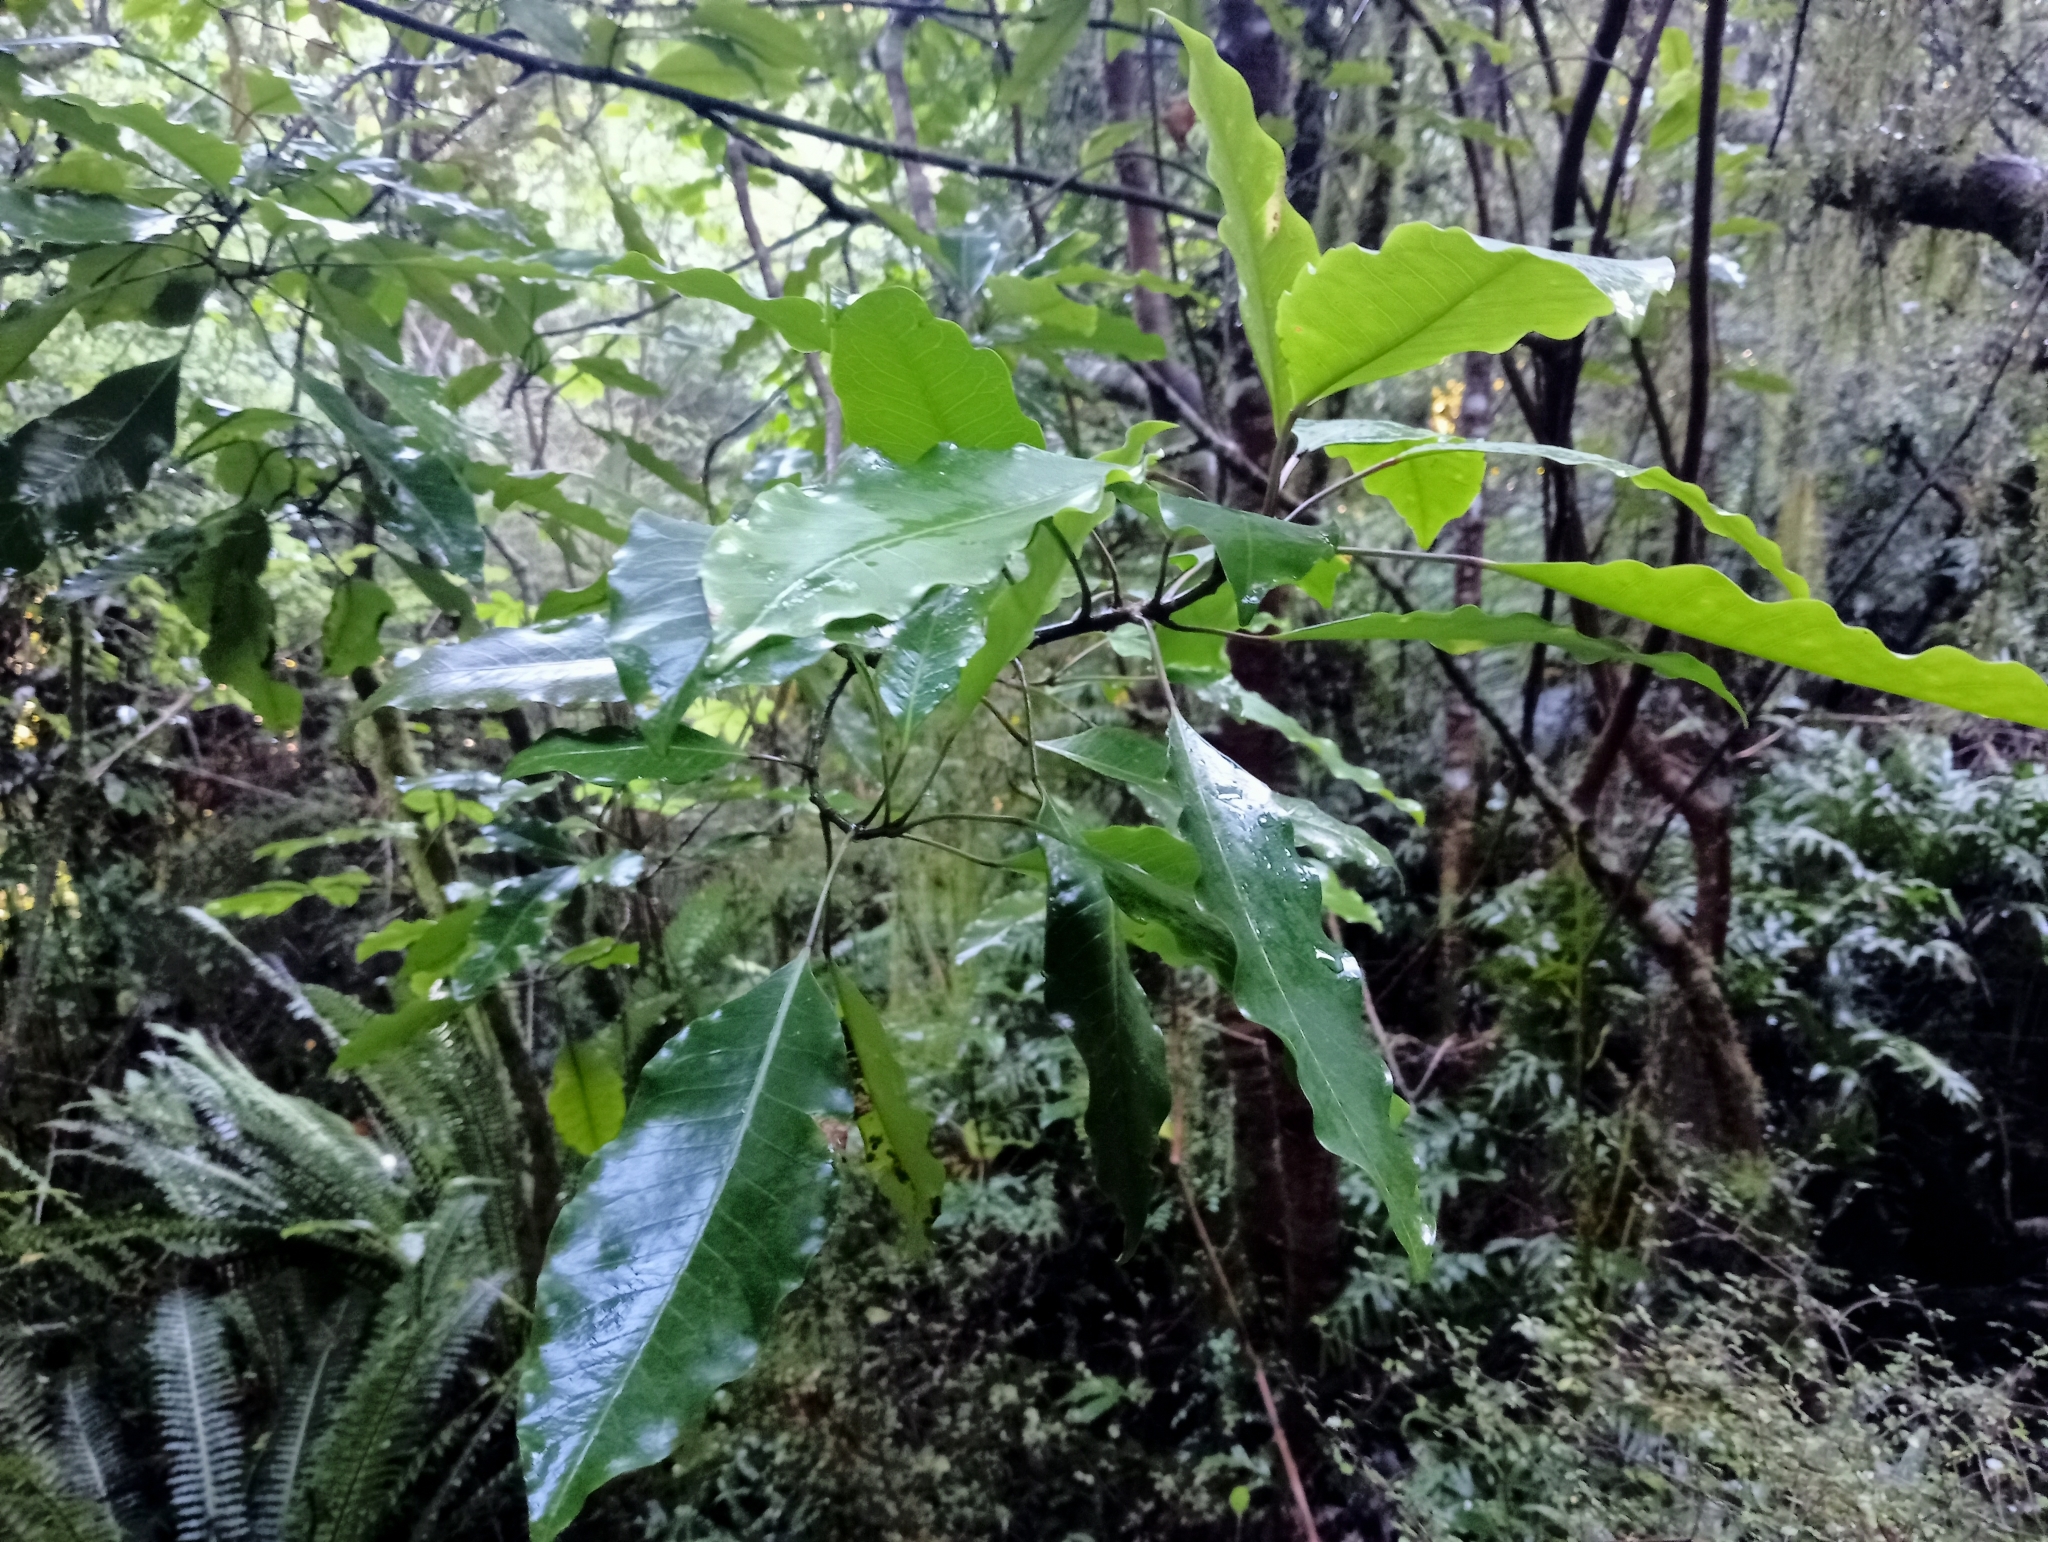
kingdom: Plantae
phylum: Tracheophyta
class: Magnoliopsida
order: Apiales
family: Araliaceae
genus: Raukaua
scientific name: Raukaua edgerleyi
